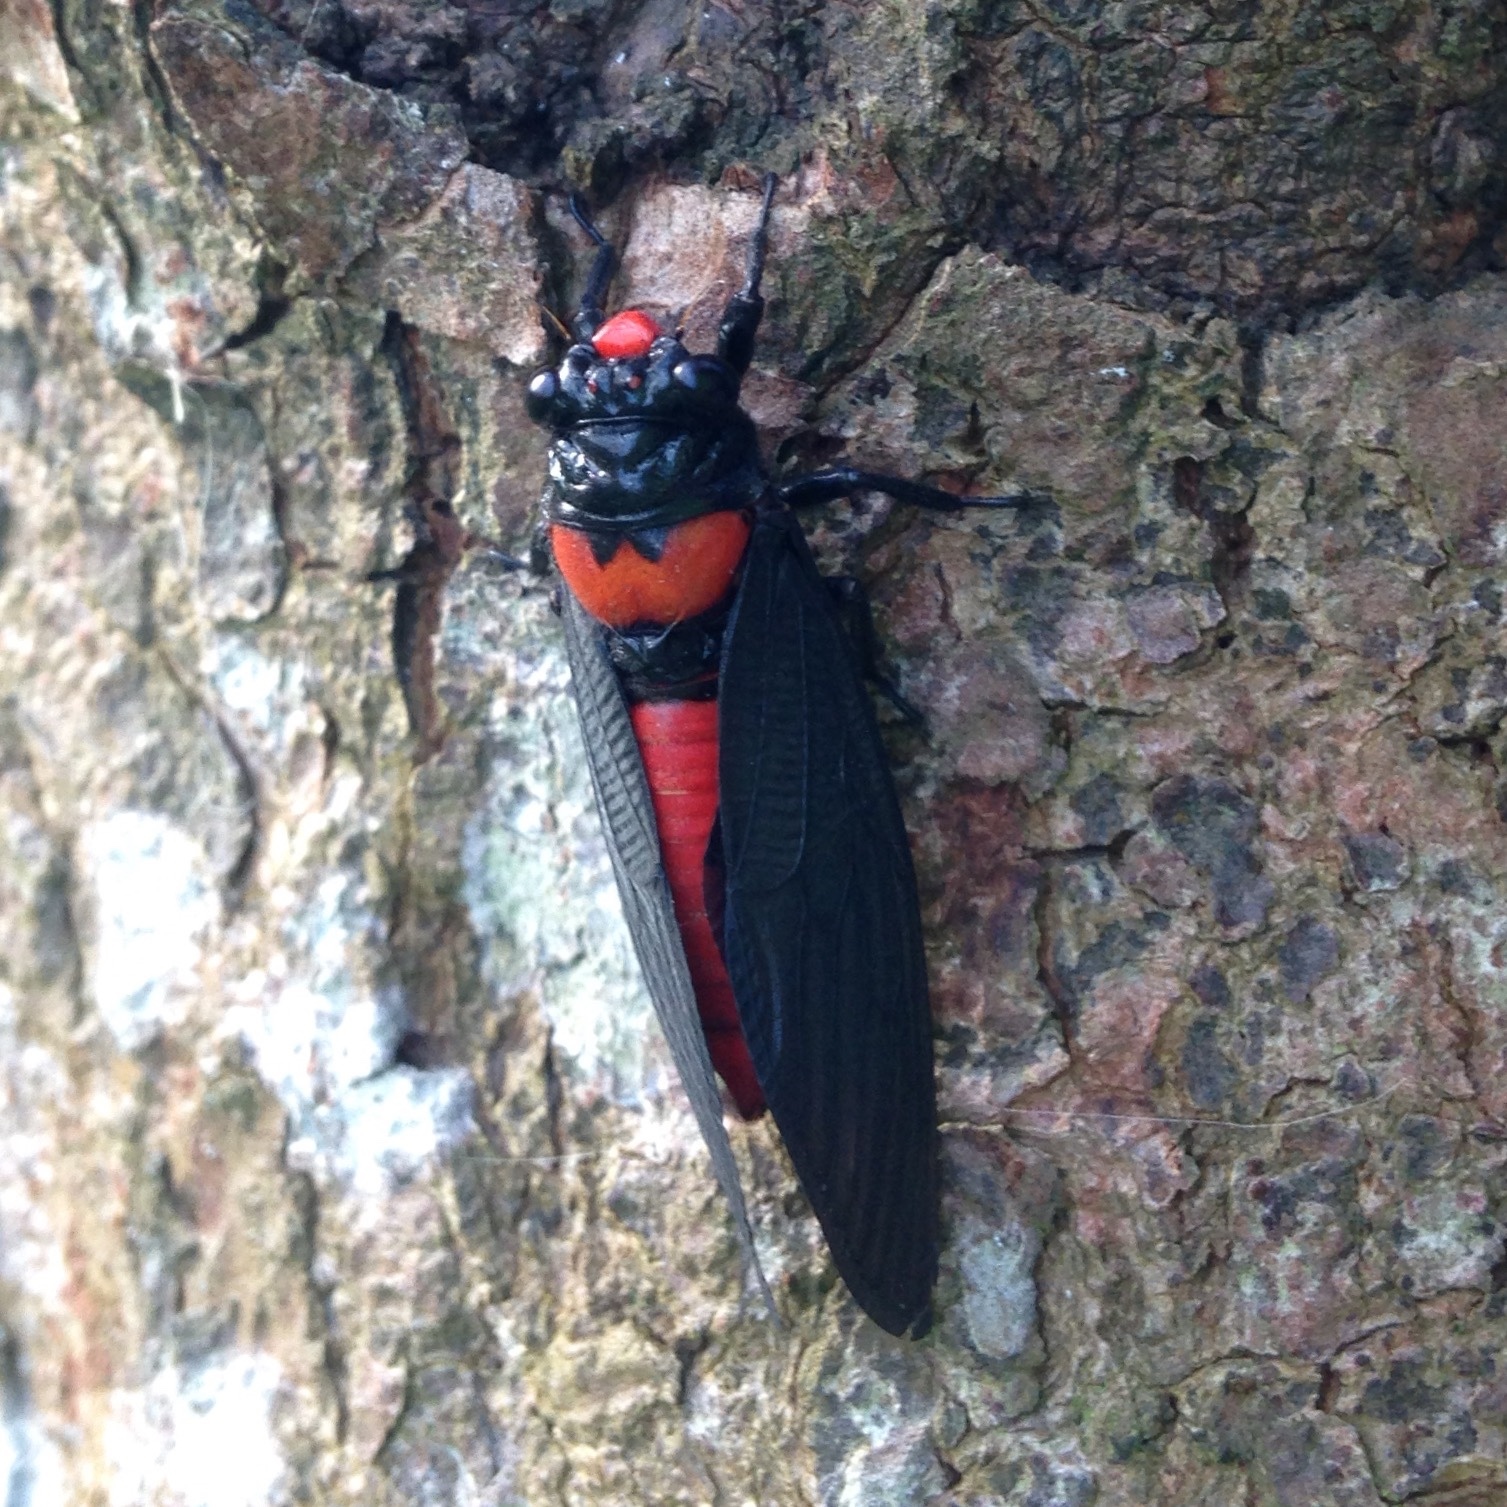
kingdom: Animalia
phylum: Arthropoda
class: Insecta
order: Hemiptera
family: Cicadidae
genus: Huechys
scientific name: Huechys sanguinea
